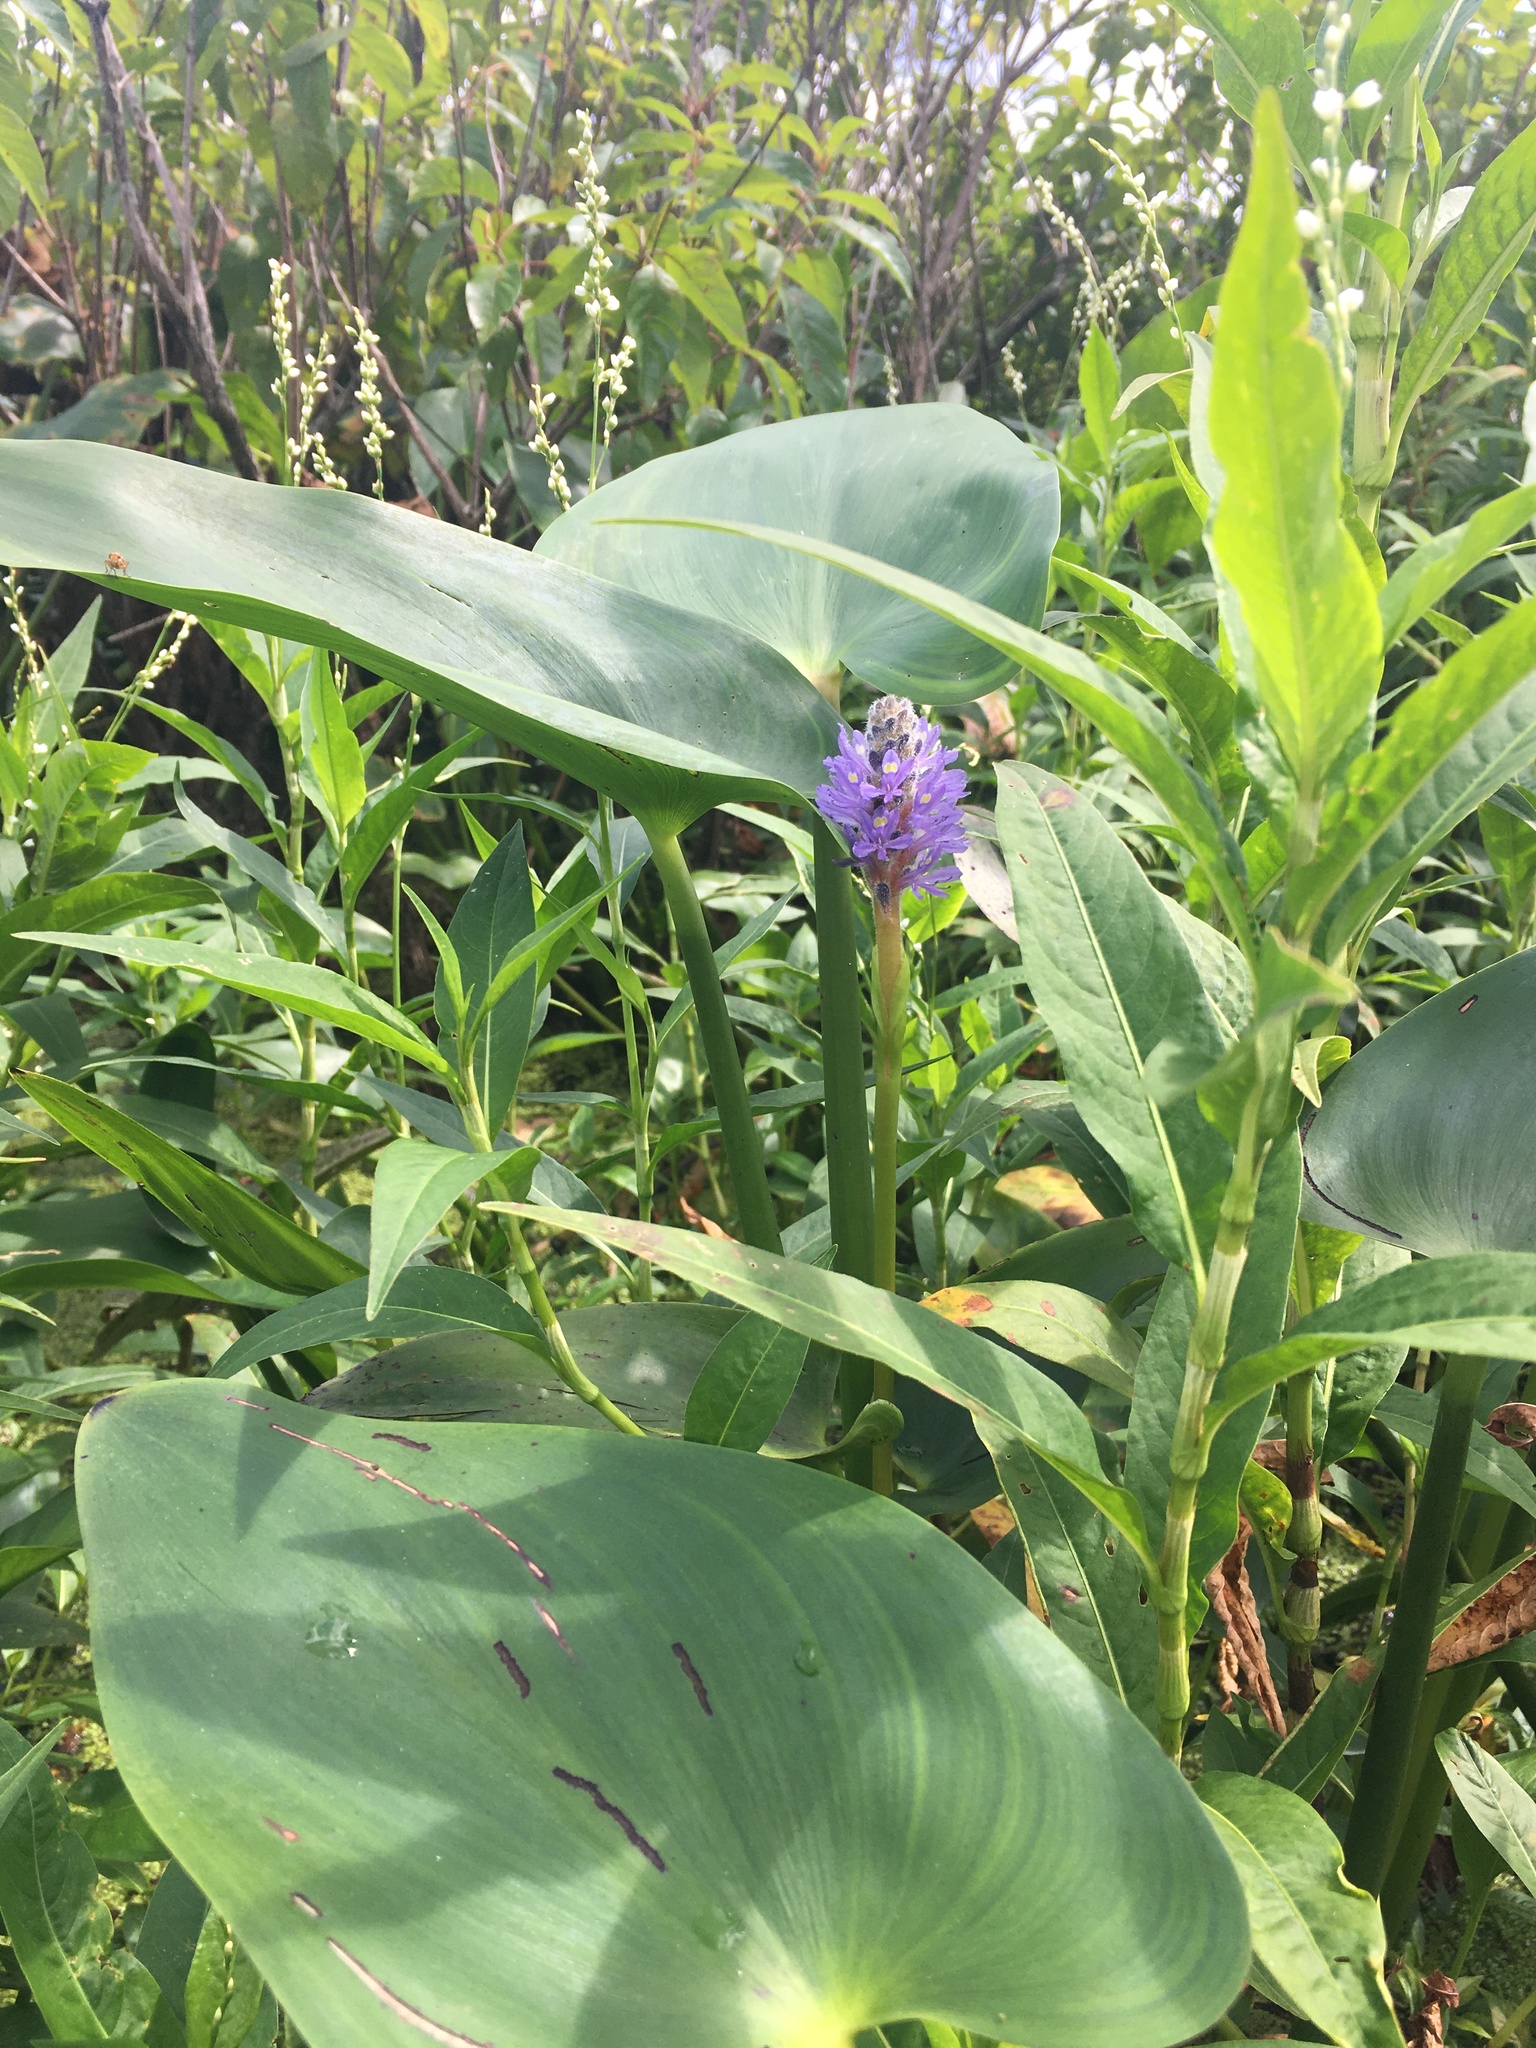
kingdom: Plantae
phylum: Tracheophyta
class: Liliopsida
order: Commelinales
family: Pontederiaceae
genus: Pontederia
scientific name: Pontederia cordata
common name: Pickerelweed
